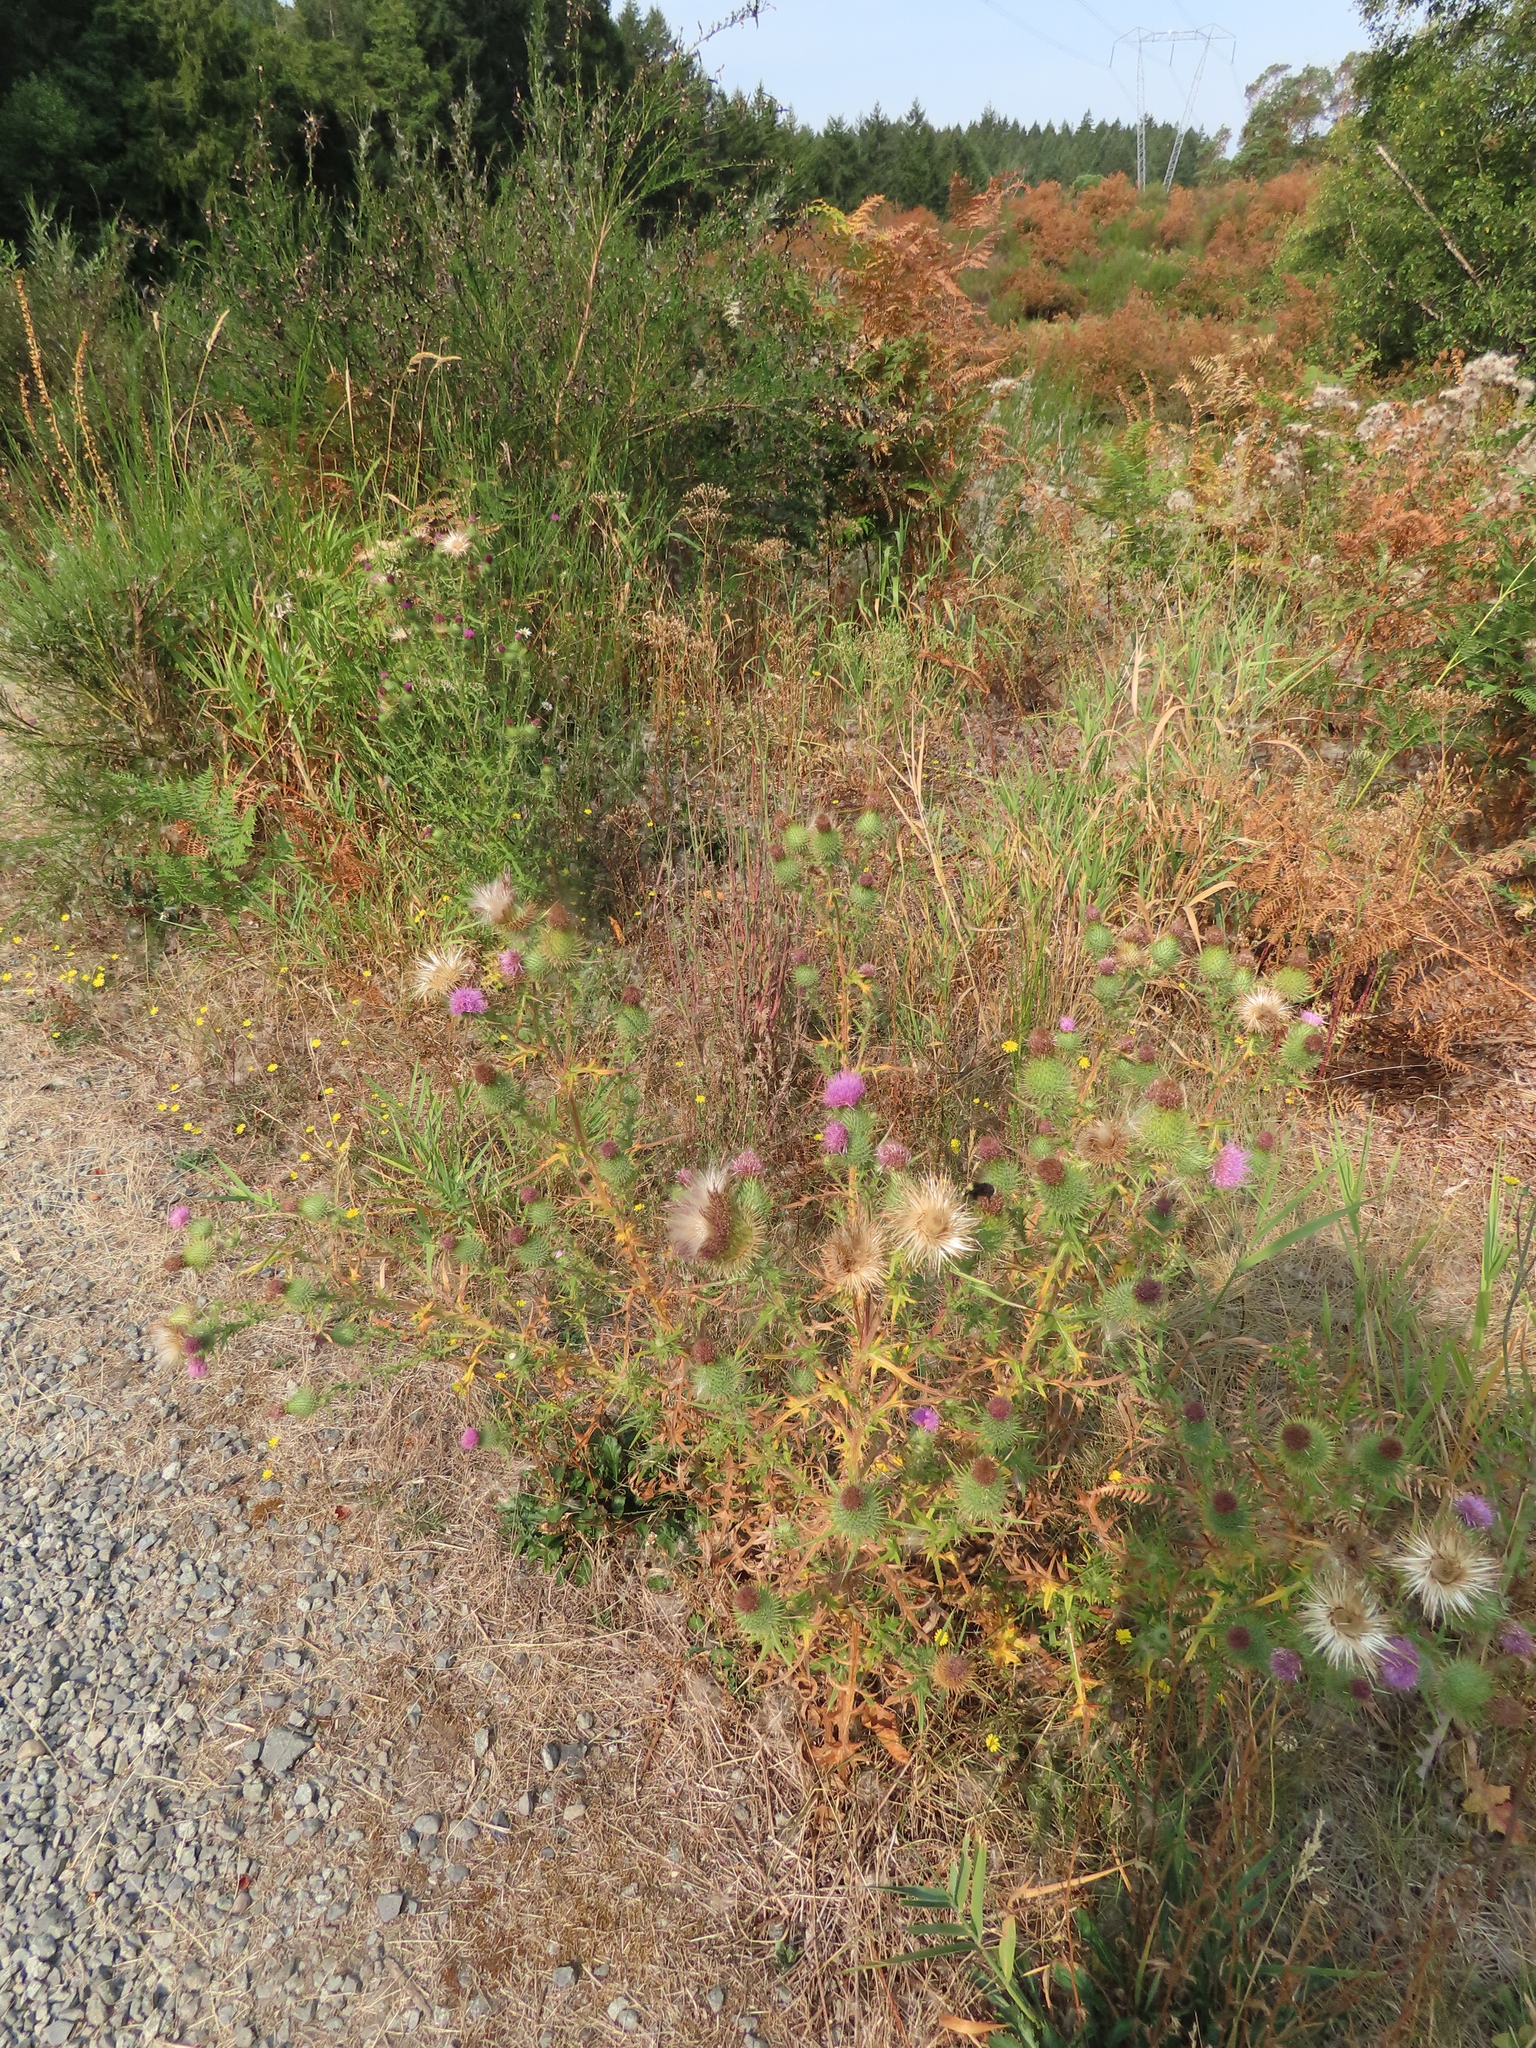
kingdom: Plantae
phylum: Tracheophyta
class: Magnoliopsida
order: Asterales
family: Asteraceae
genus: Cirsium
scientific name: Cirsium vulgare
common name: Bull thistle
